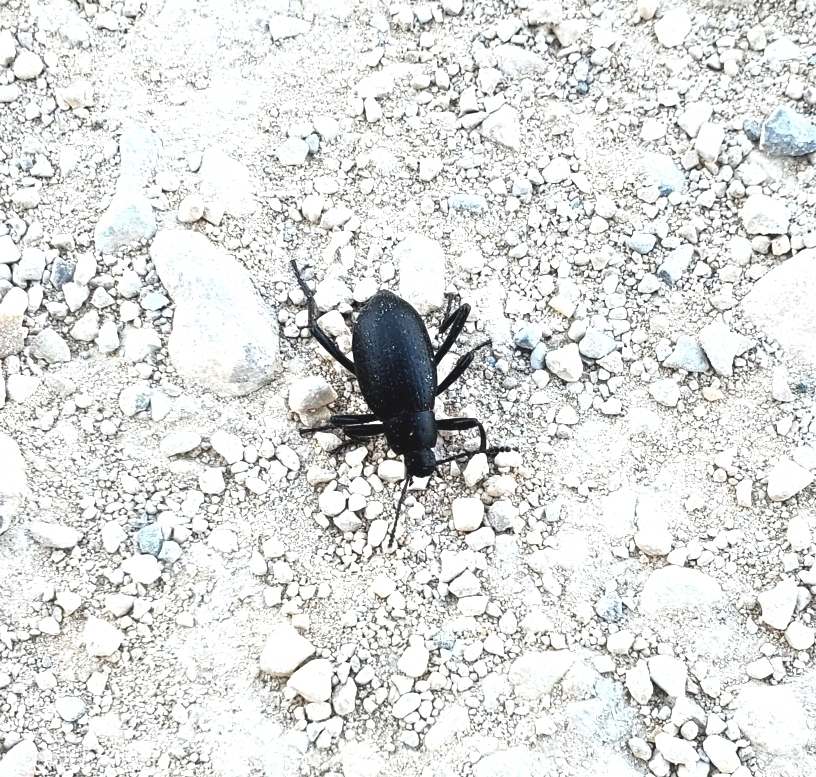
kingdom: Animalia
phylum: Arthropoda
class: Insecta
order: Coleoptera
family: Tenebrionidae
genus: Eleodes
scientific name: Eleodes goryi
